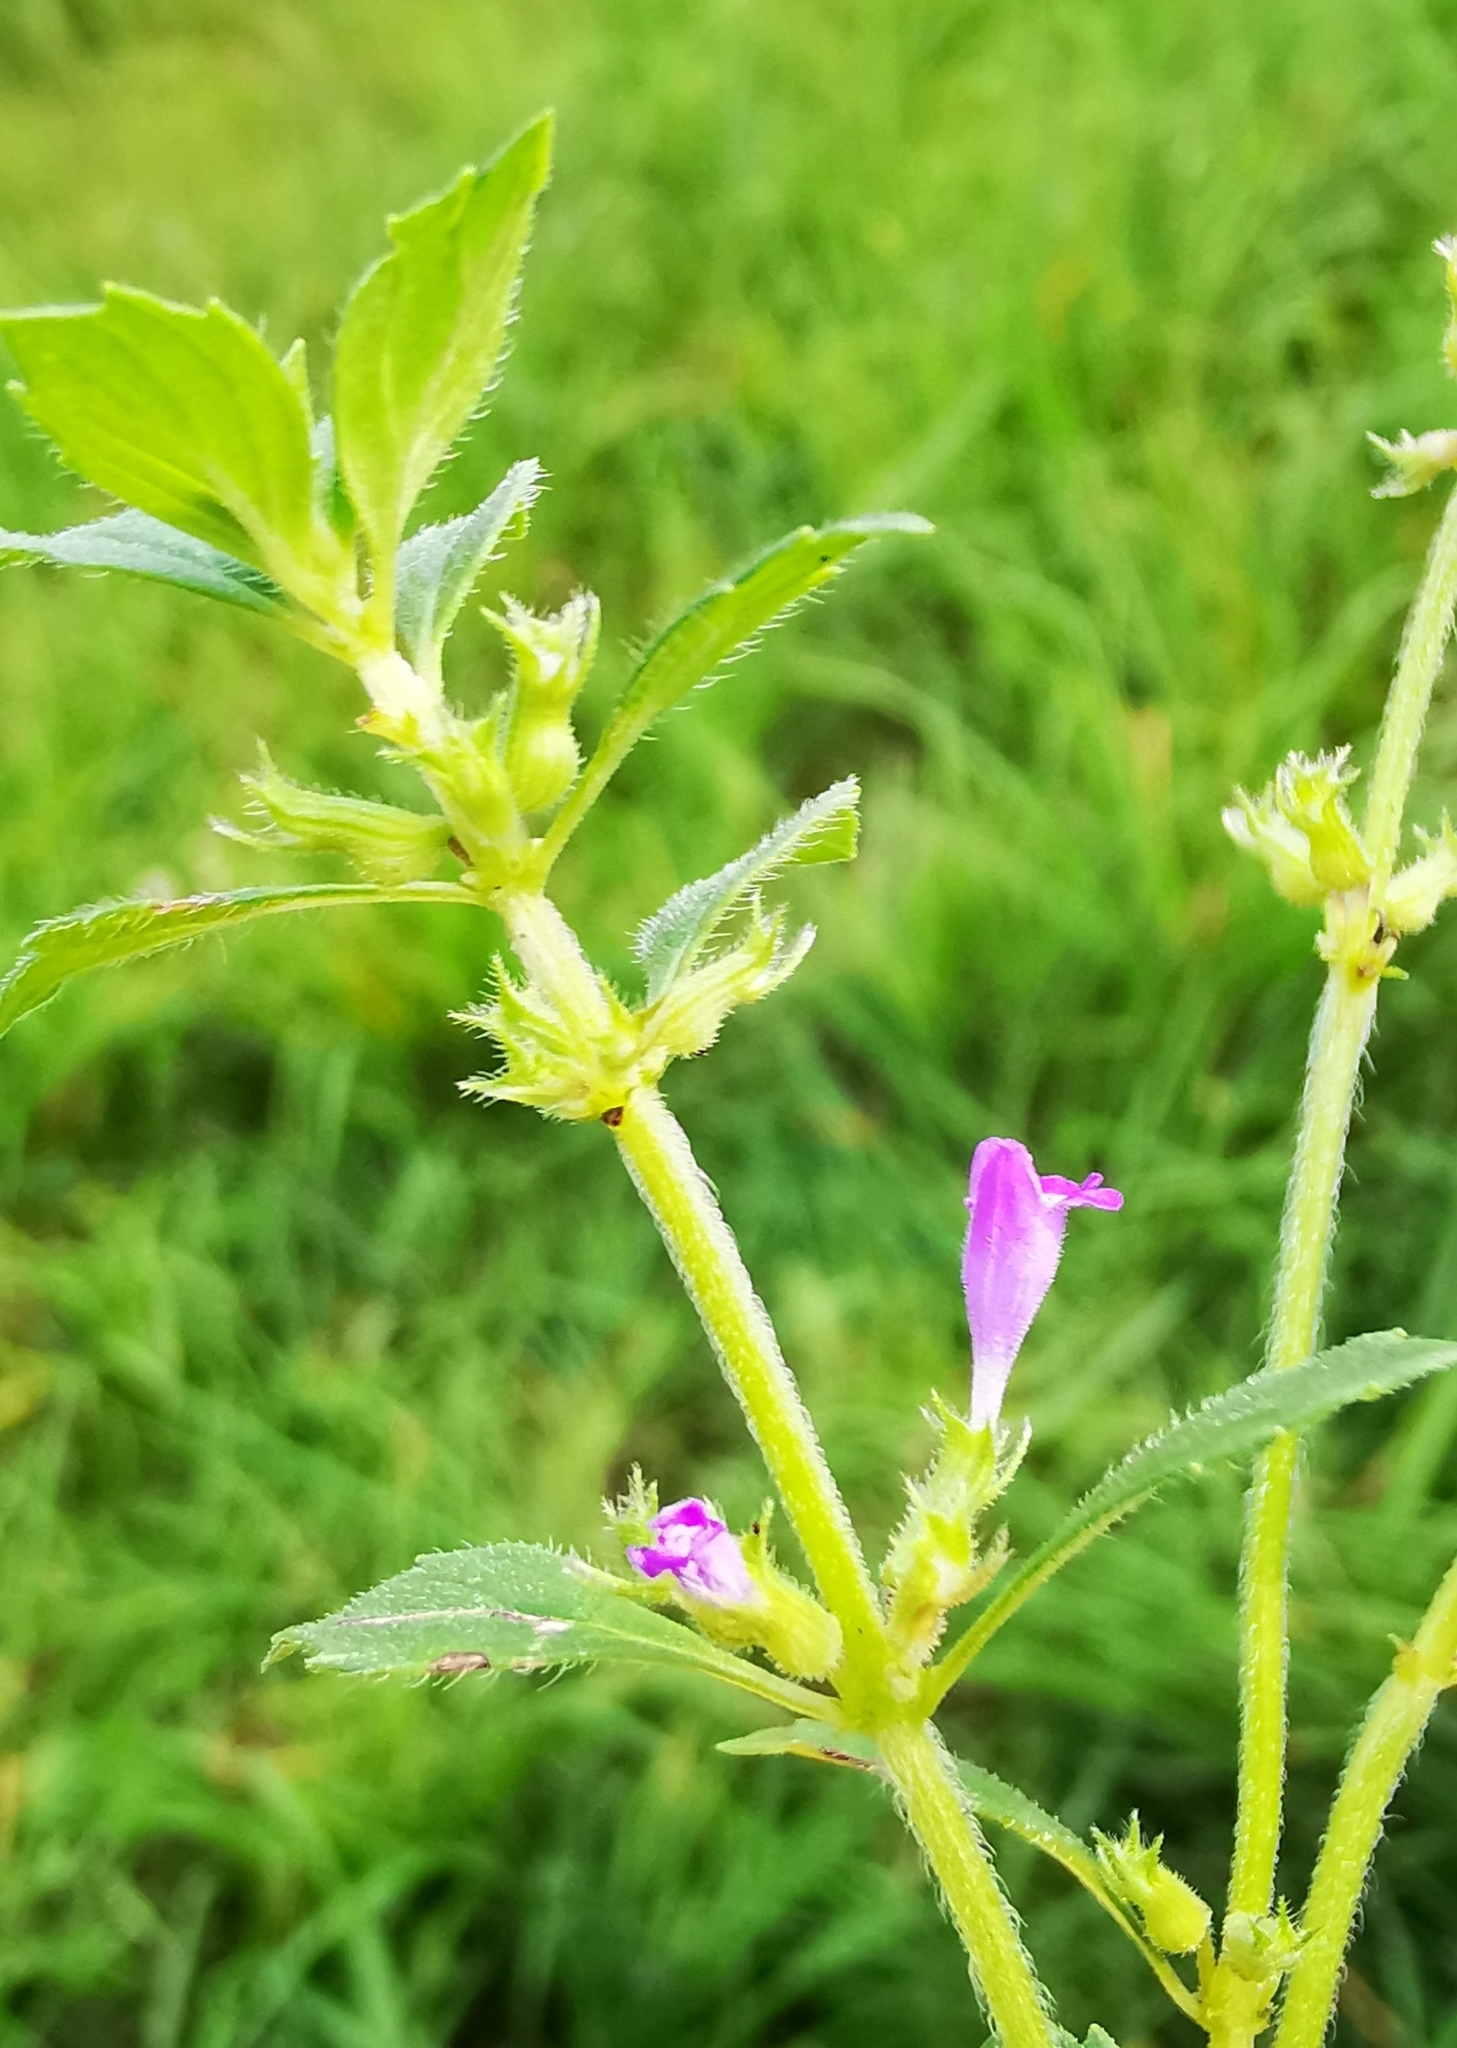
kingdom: Plantae
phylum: Tracheophyta
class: Magnoliopsida
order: Lamiales
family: Lamiaceae
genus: Clinopodium
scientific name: Clinopodium acinos
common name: Basil thyme
